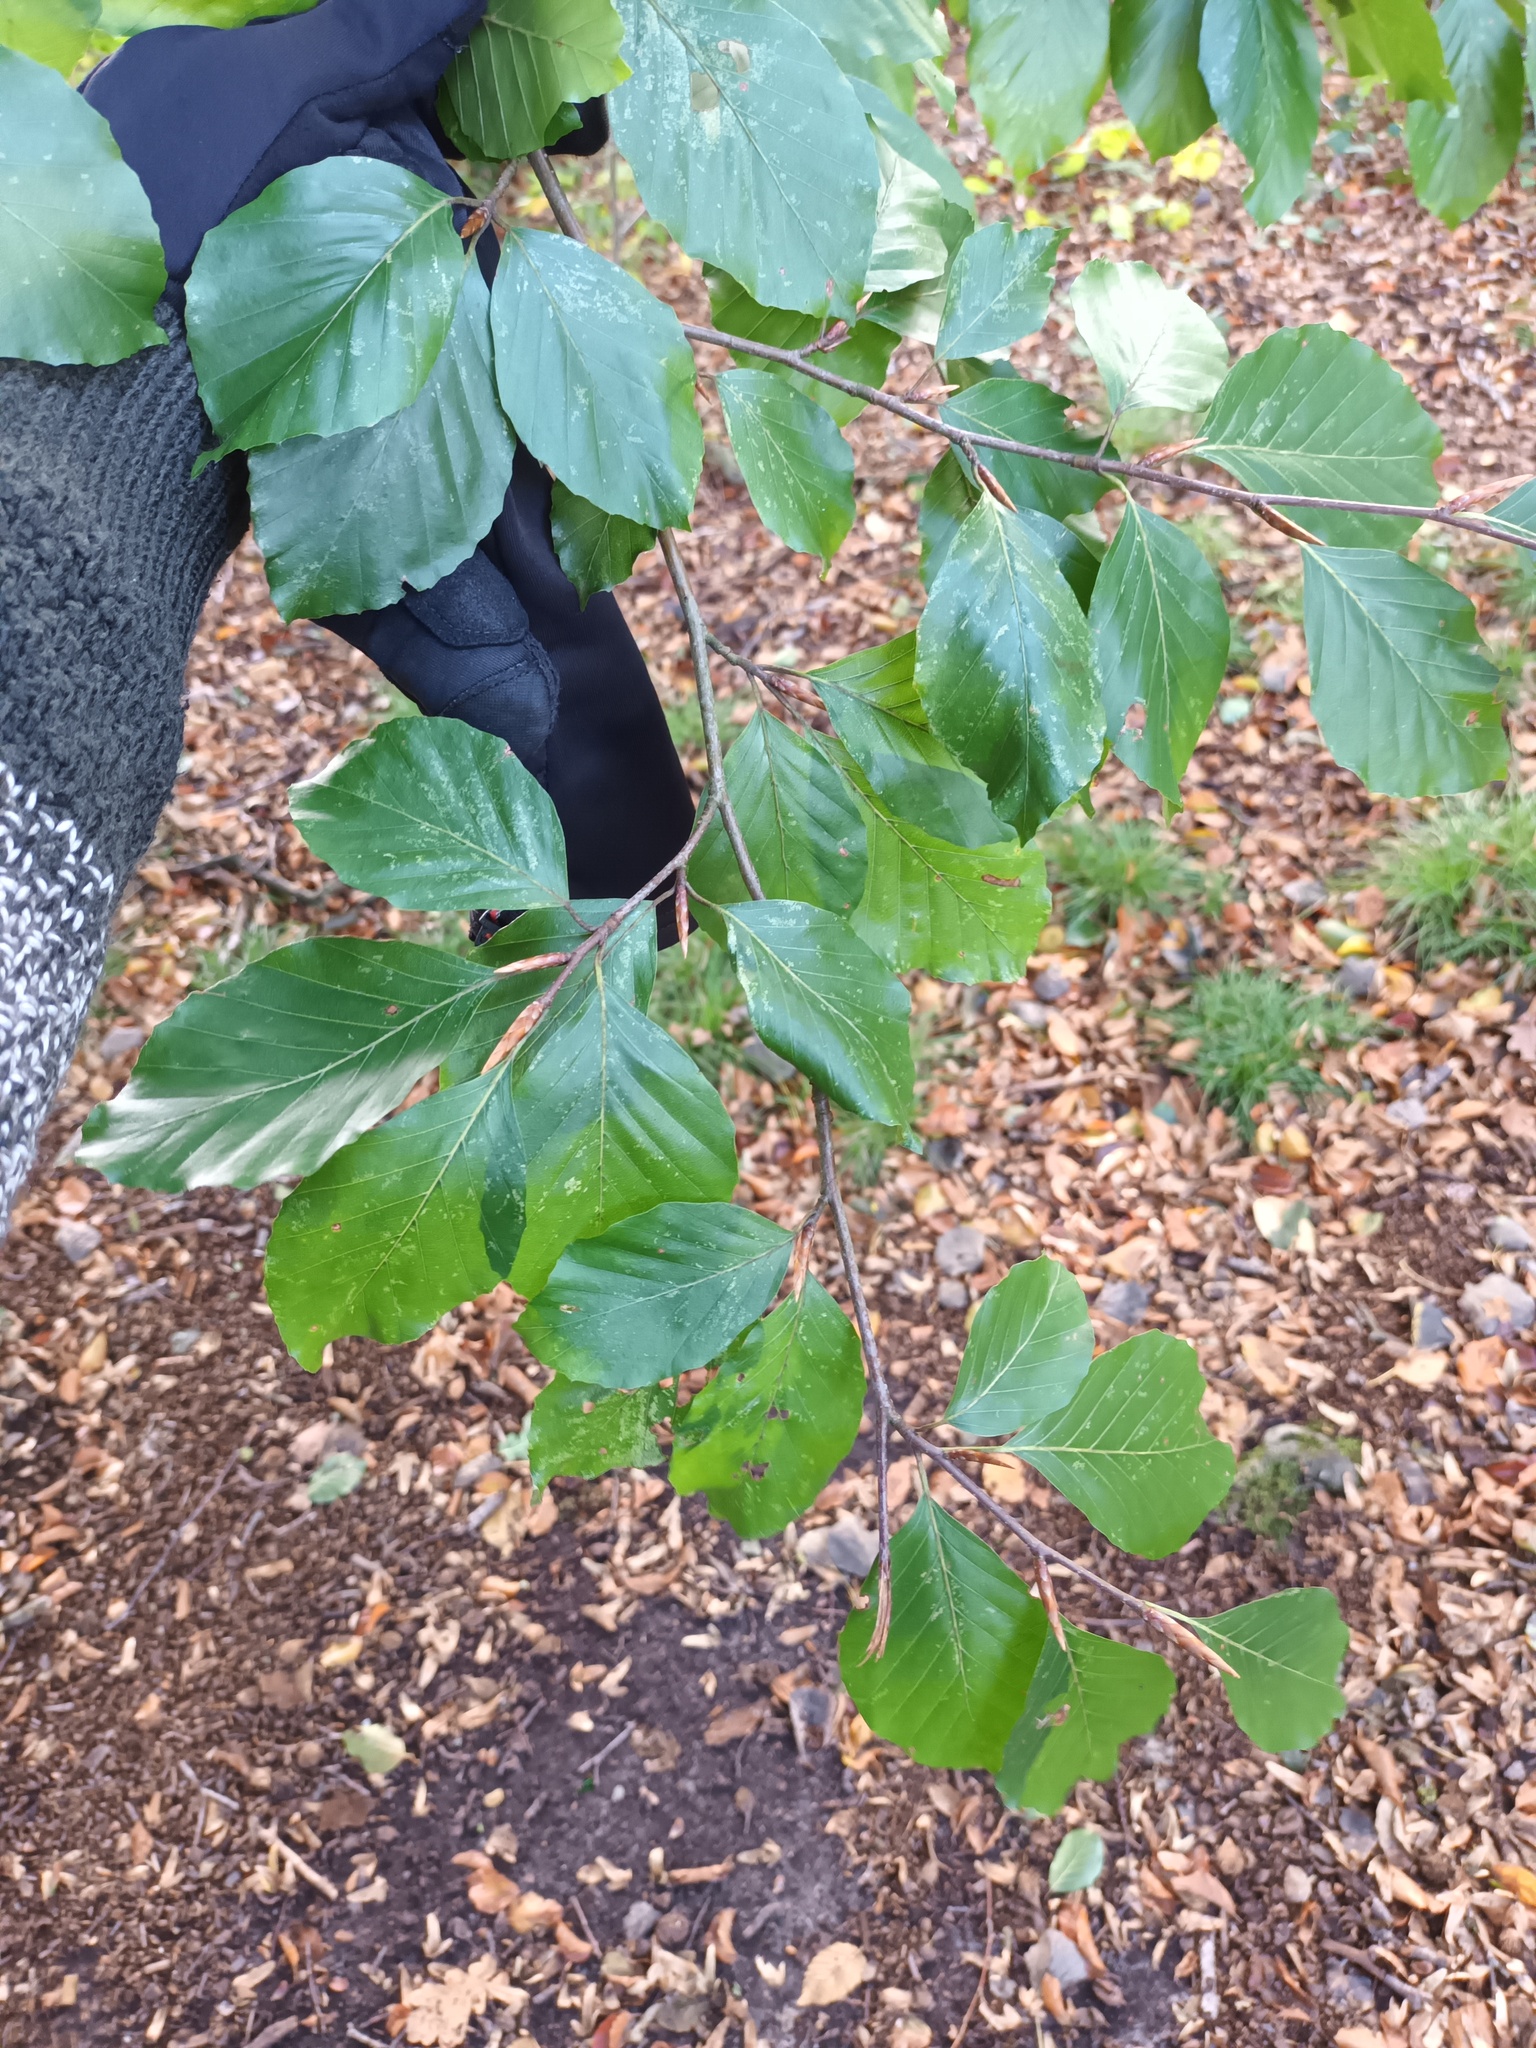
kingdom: Plantae
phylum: Tracheophyta
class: Magnoliopsida
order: Fagales
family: Fagaceae
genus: Fagus
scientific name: Fagus sylvatica
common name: Beech
